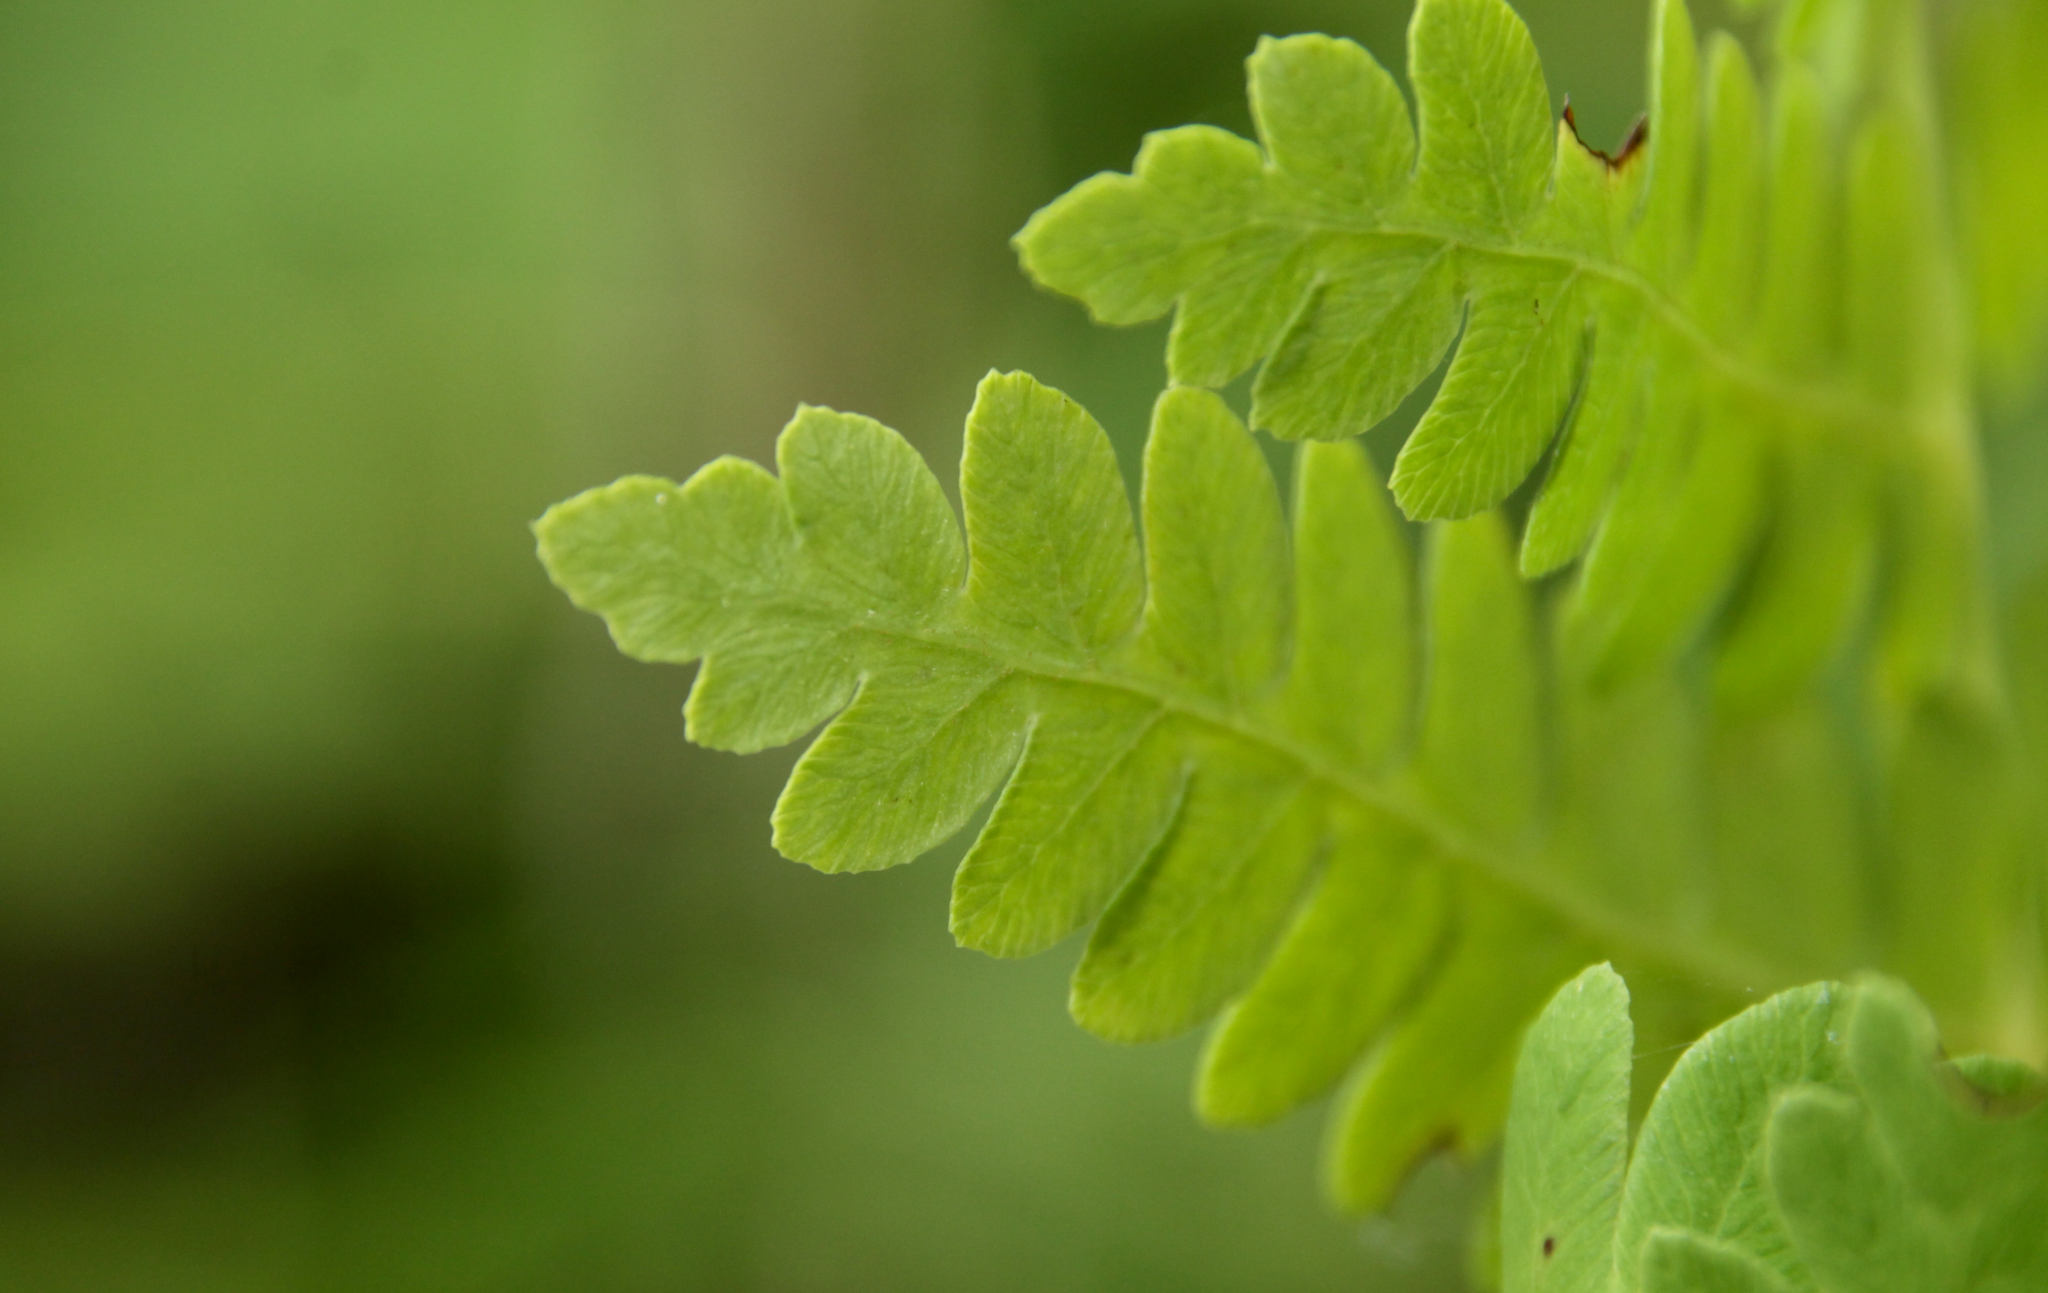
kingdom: Plantae
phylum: Tracheophyta
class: Polypodiopsida
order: Osmundales
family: Osmundaceae
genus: Claytosmunda
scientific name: Claytosmunda claytoniana
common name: Clayton's fern
